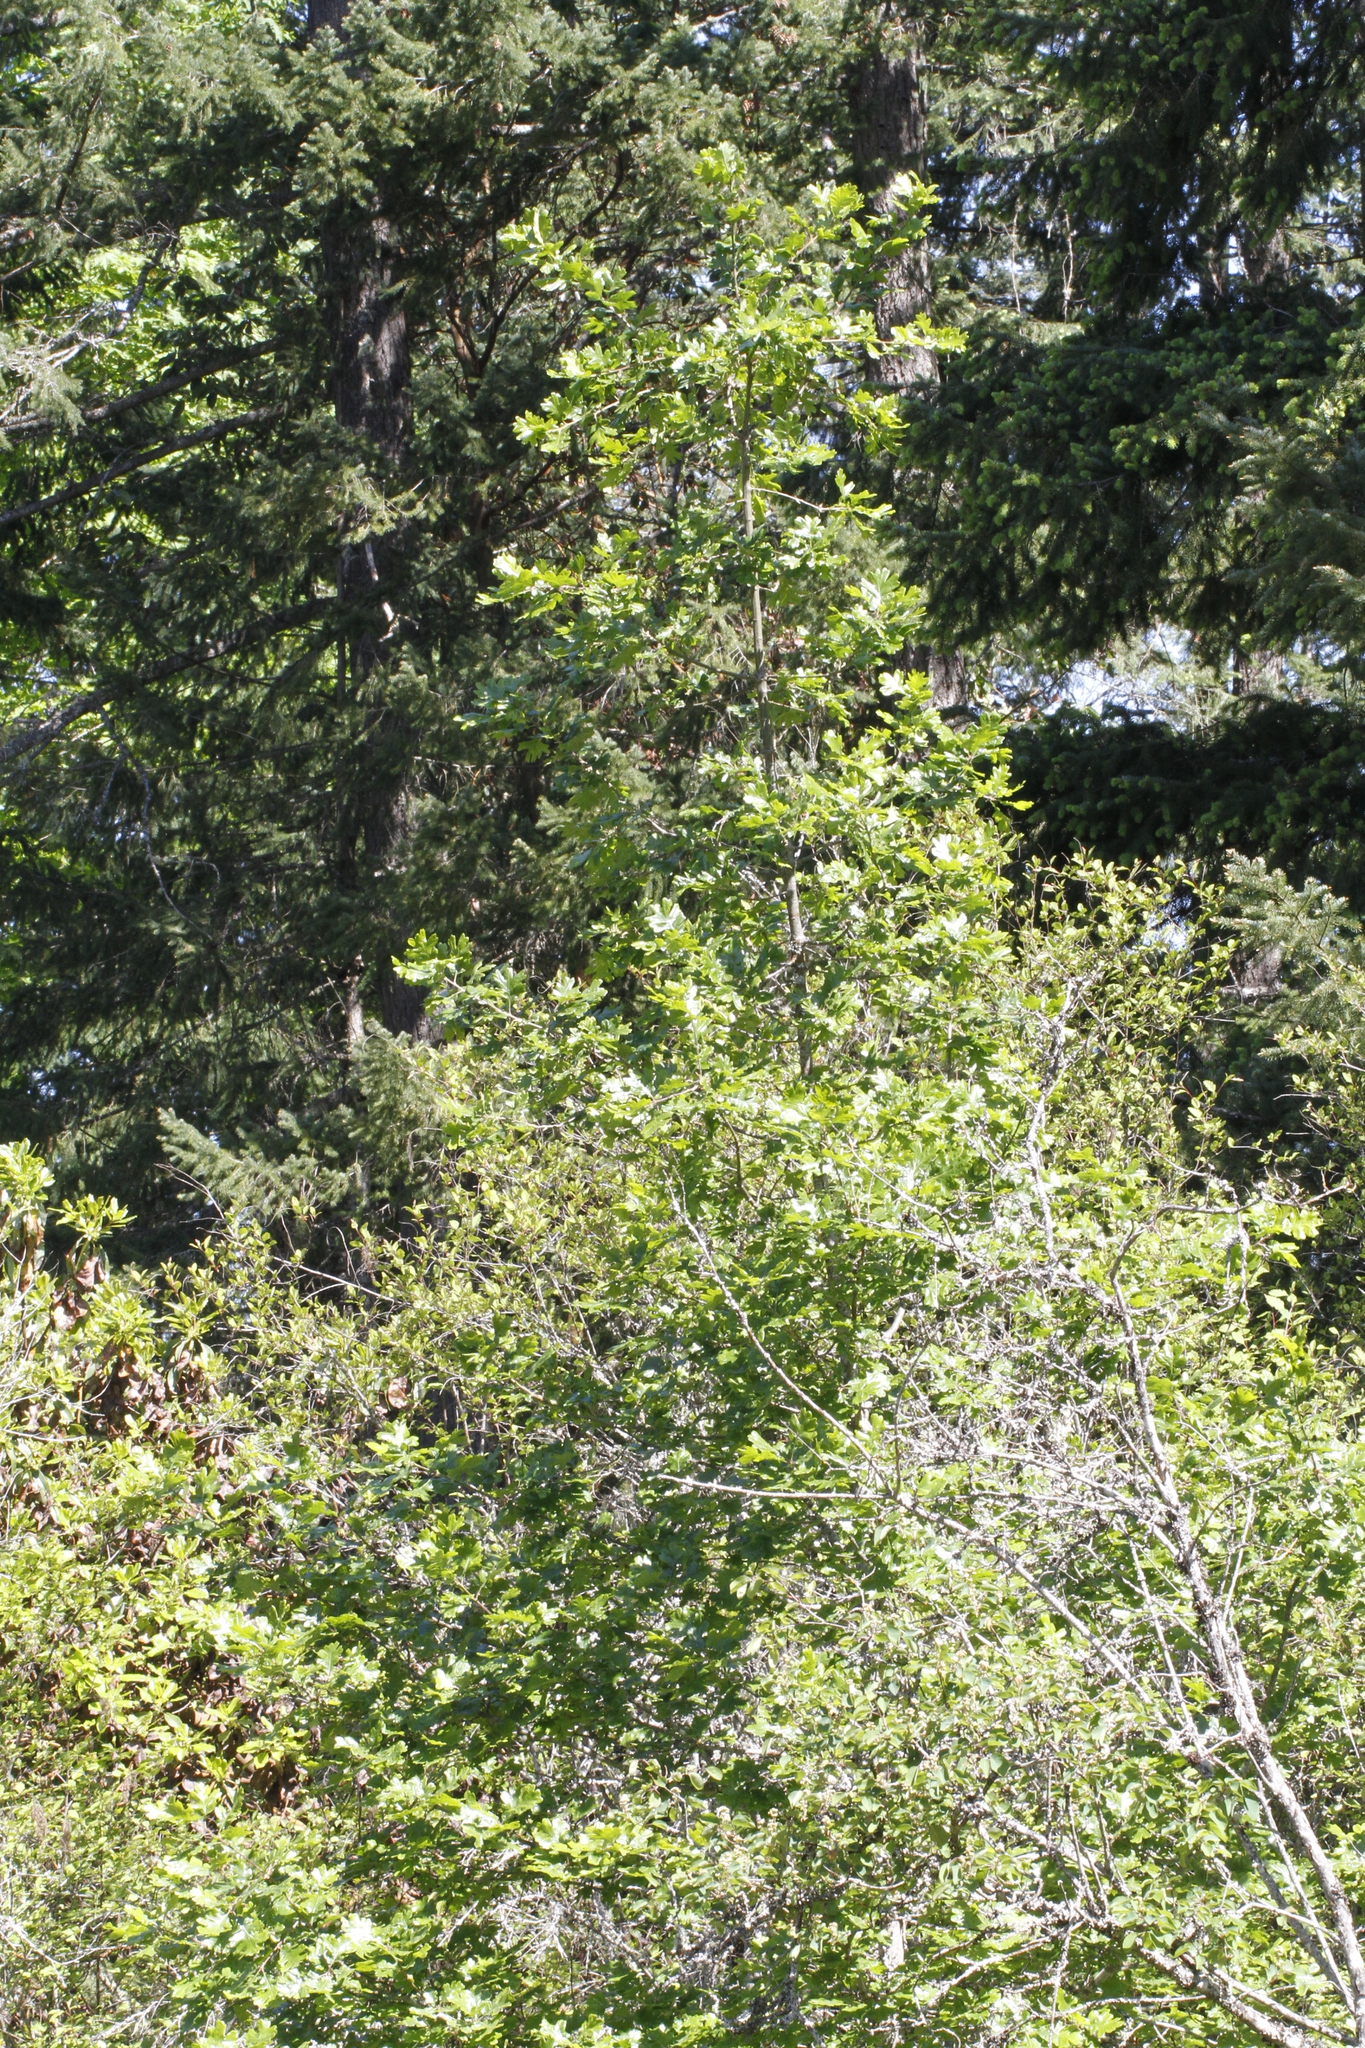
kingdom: Plantae
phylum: Tracheophyta
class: Magnoliopsida
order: Fagales
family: Fagaceae
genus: Quercus
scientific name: Quercus garryana
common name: Garry oak
